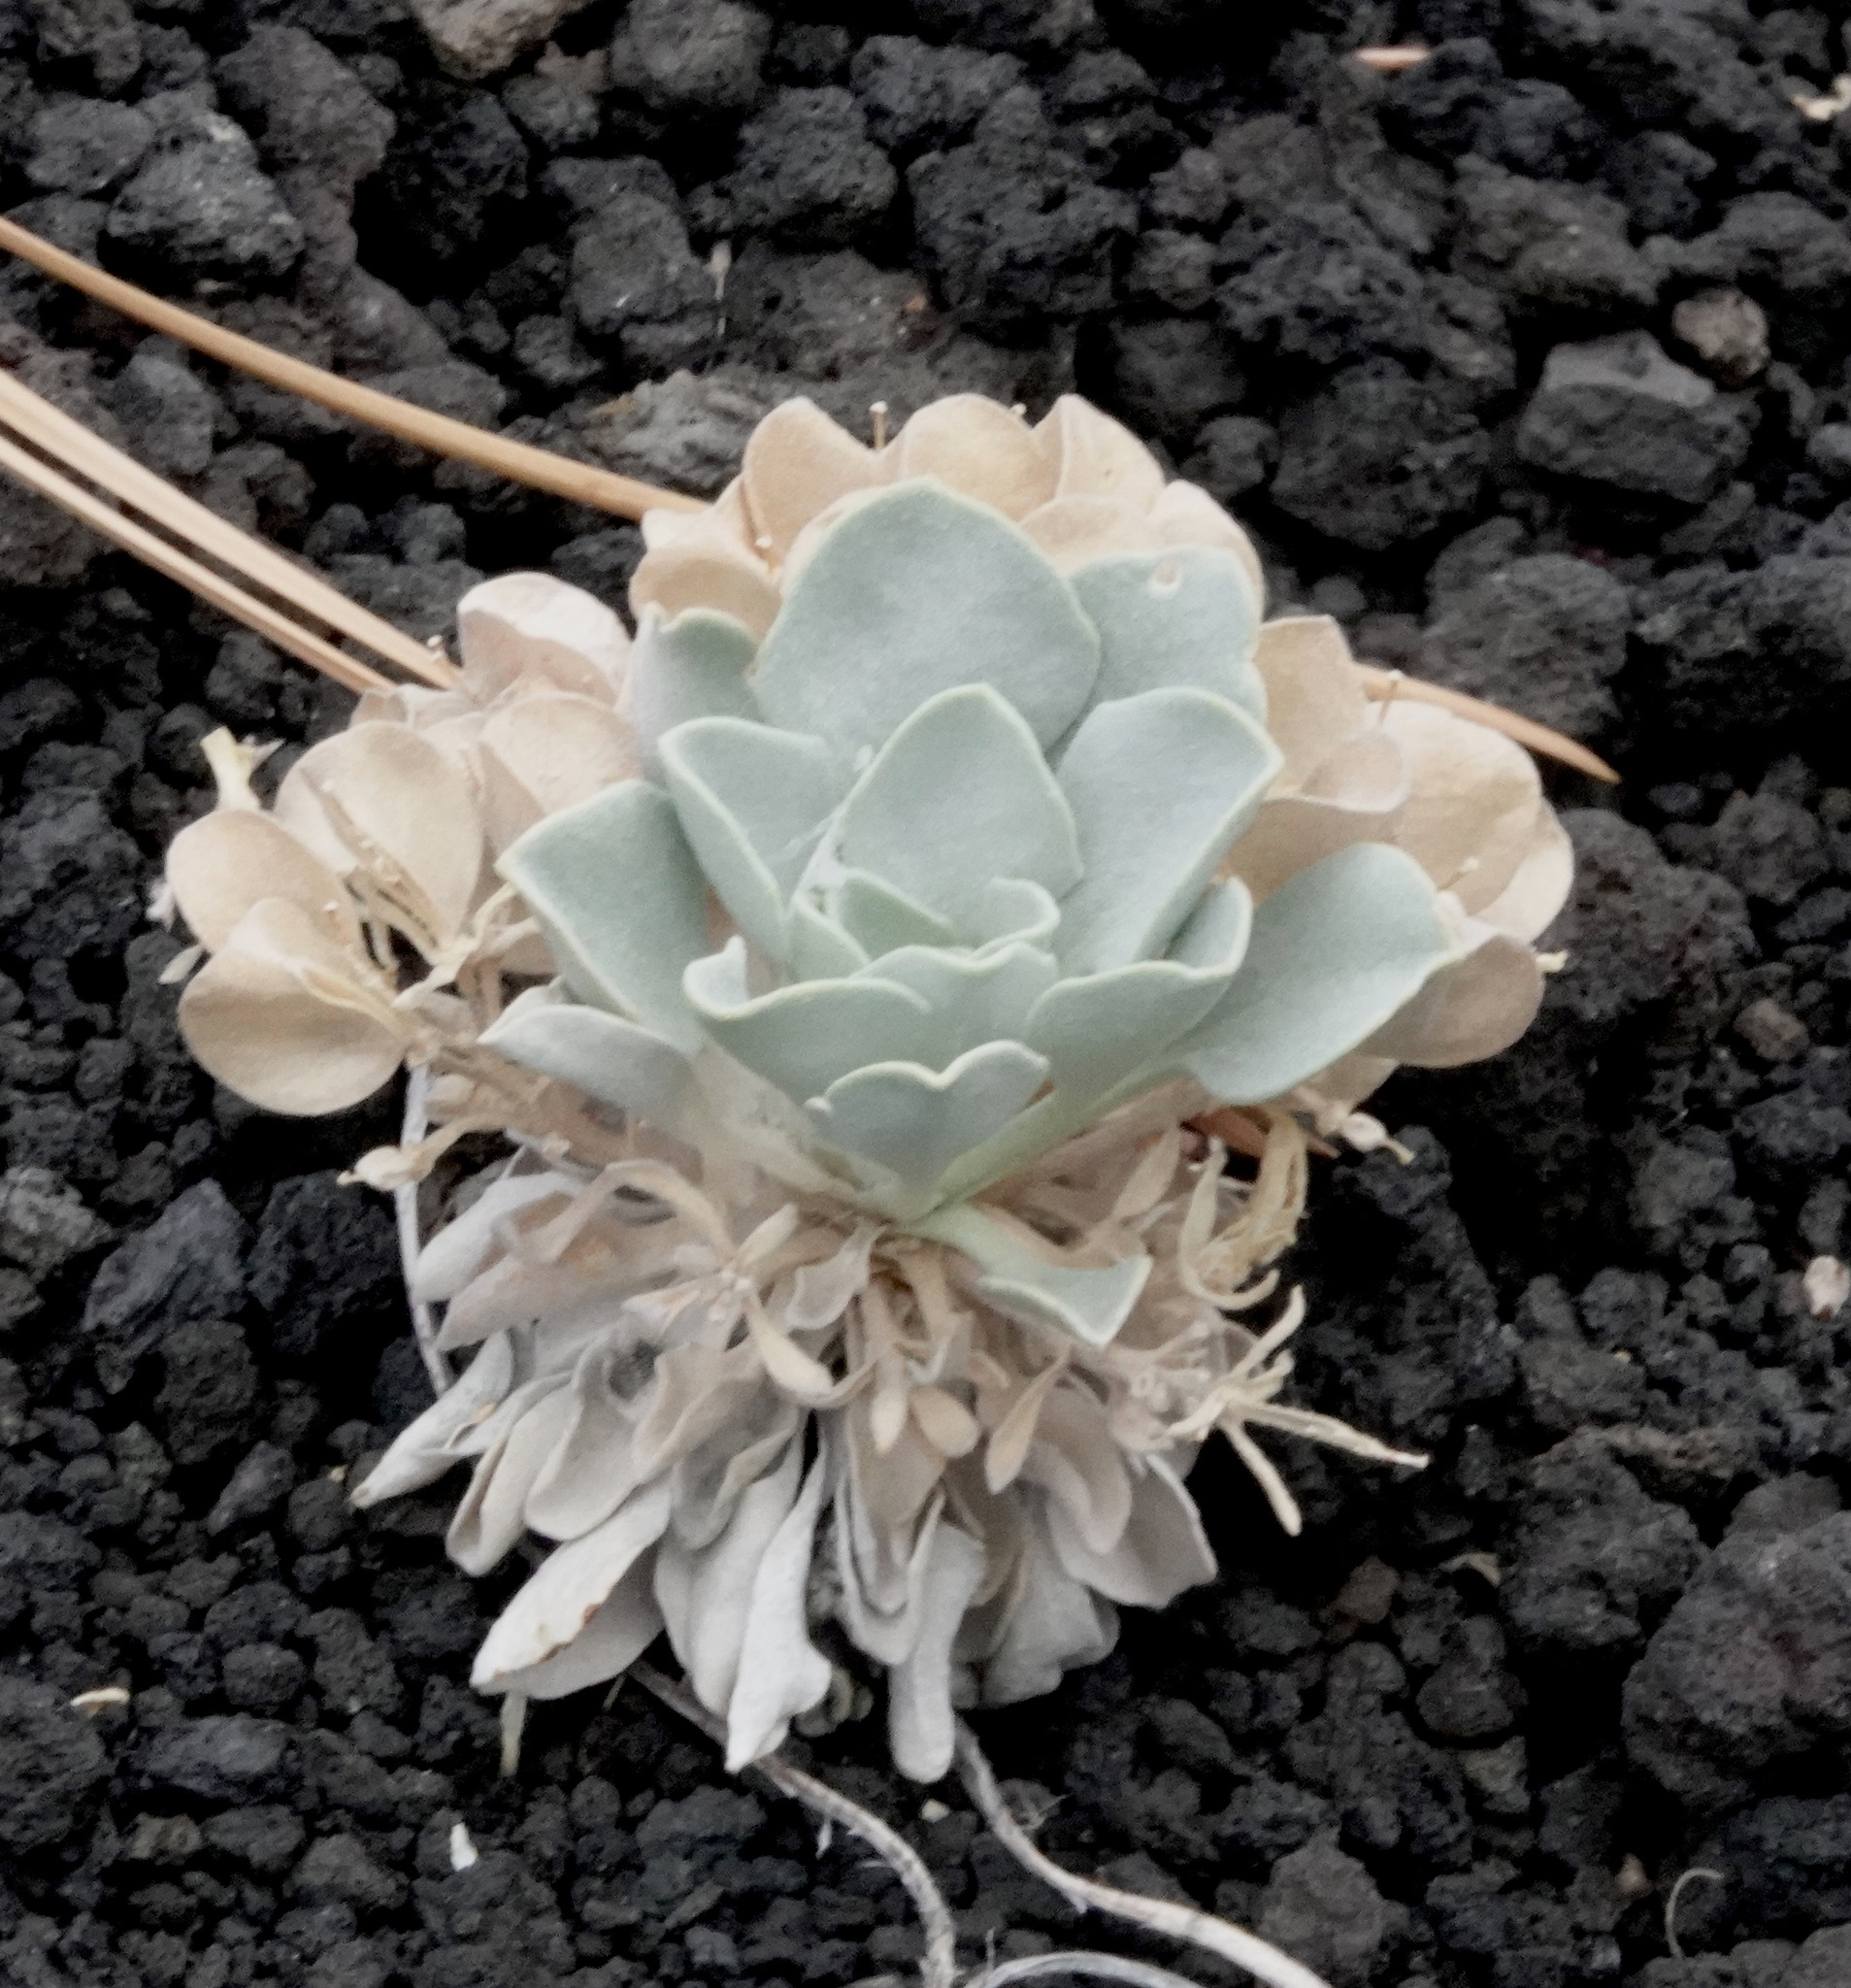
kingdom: Plantae
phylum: Tracheophyta
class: Magnoliopsida
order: Brassicales
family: Brassicaceae
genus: Physaria
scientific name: Physaria newberryi
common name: Newberry twinpod
